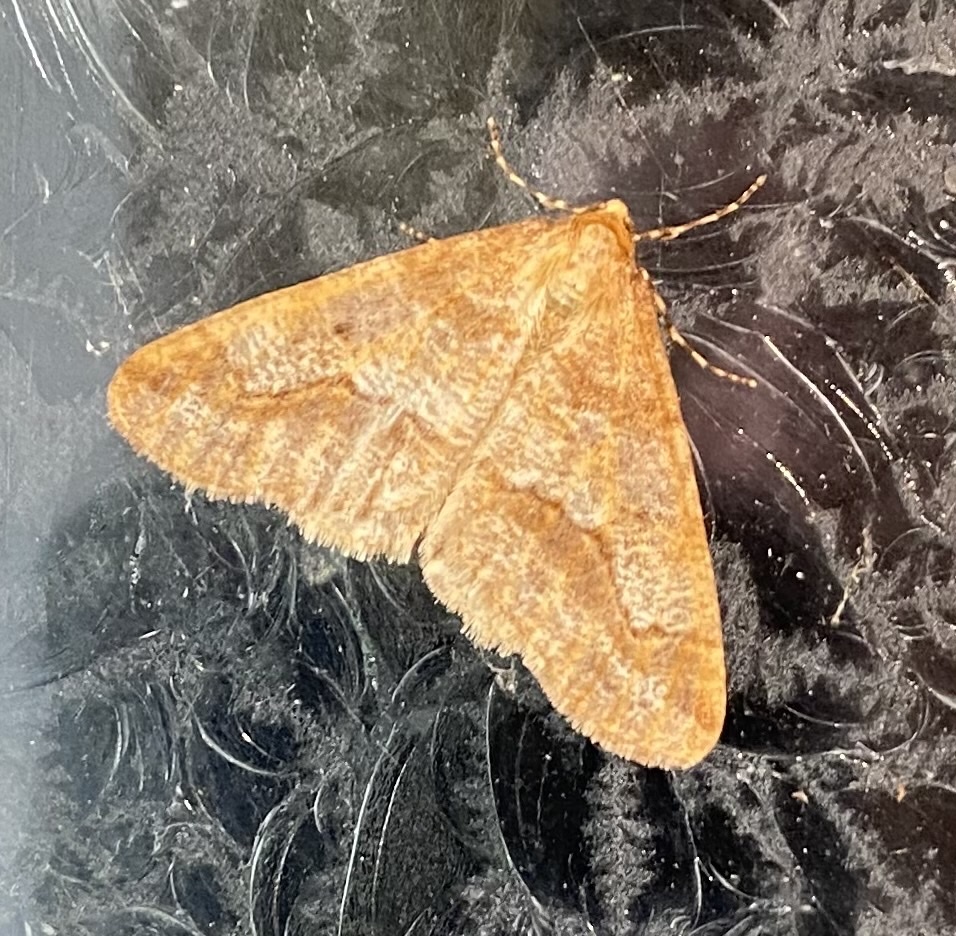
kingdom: Animalia
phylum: Arthropoda
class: Insecta
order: Lepidoptera
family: Geometridae
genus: Erannis
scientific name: Erannis tiliaria
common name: Linden looper
